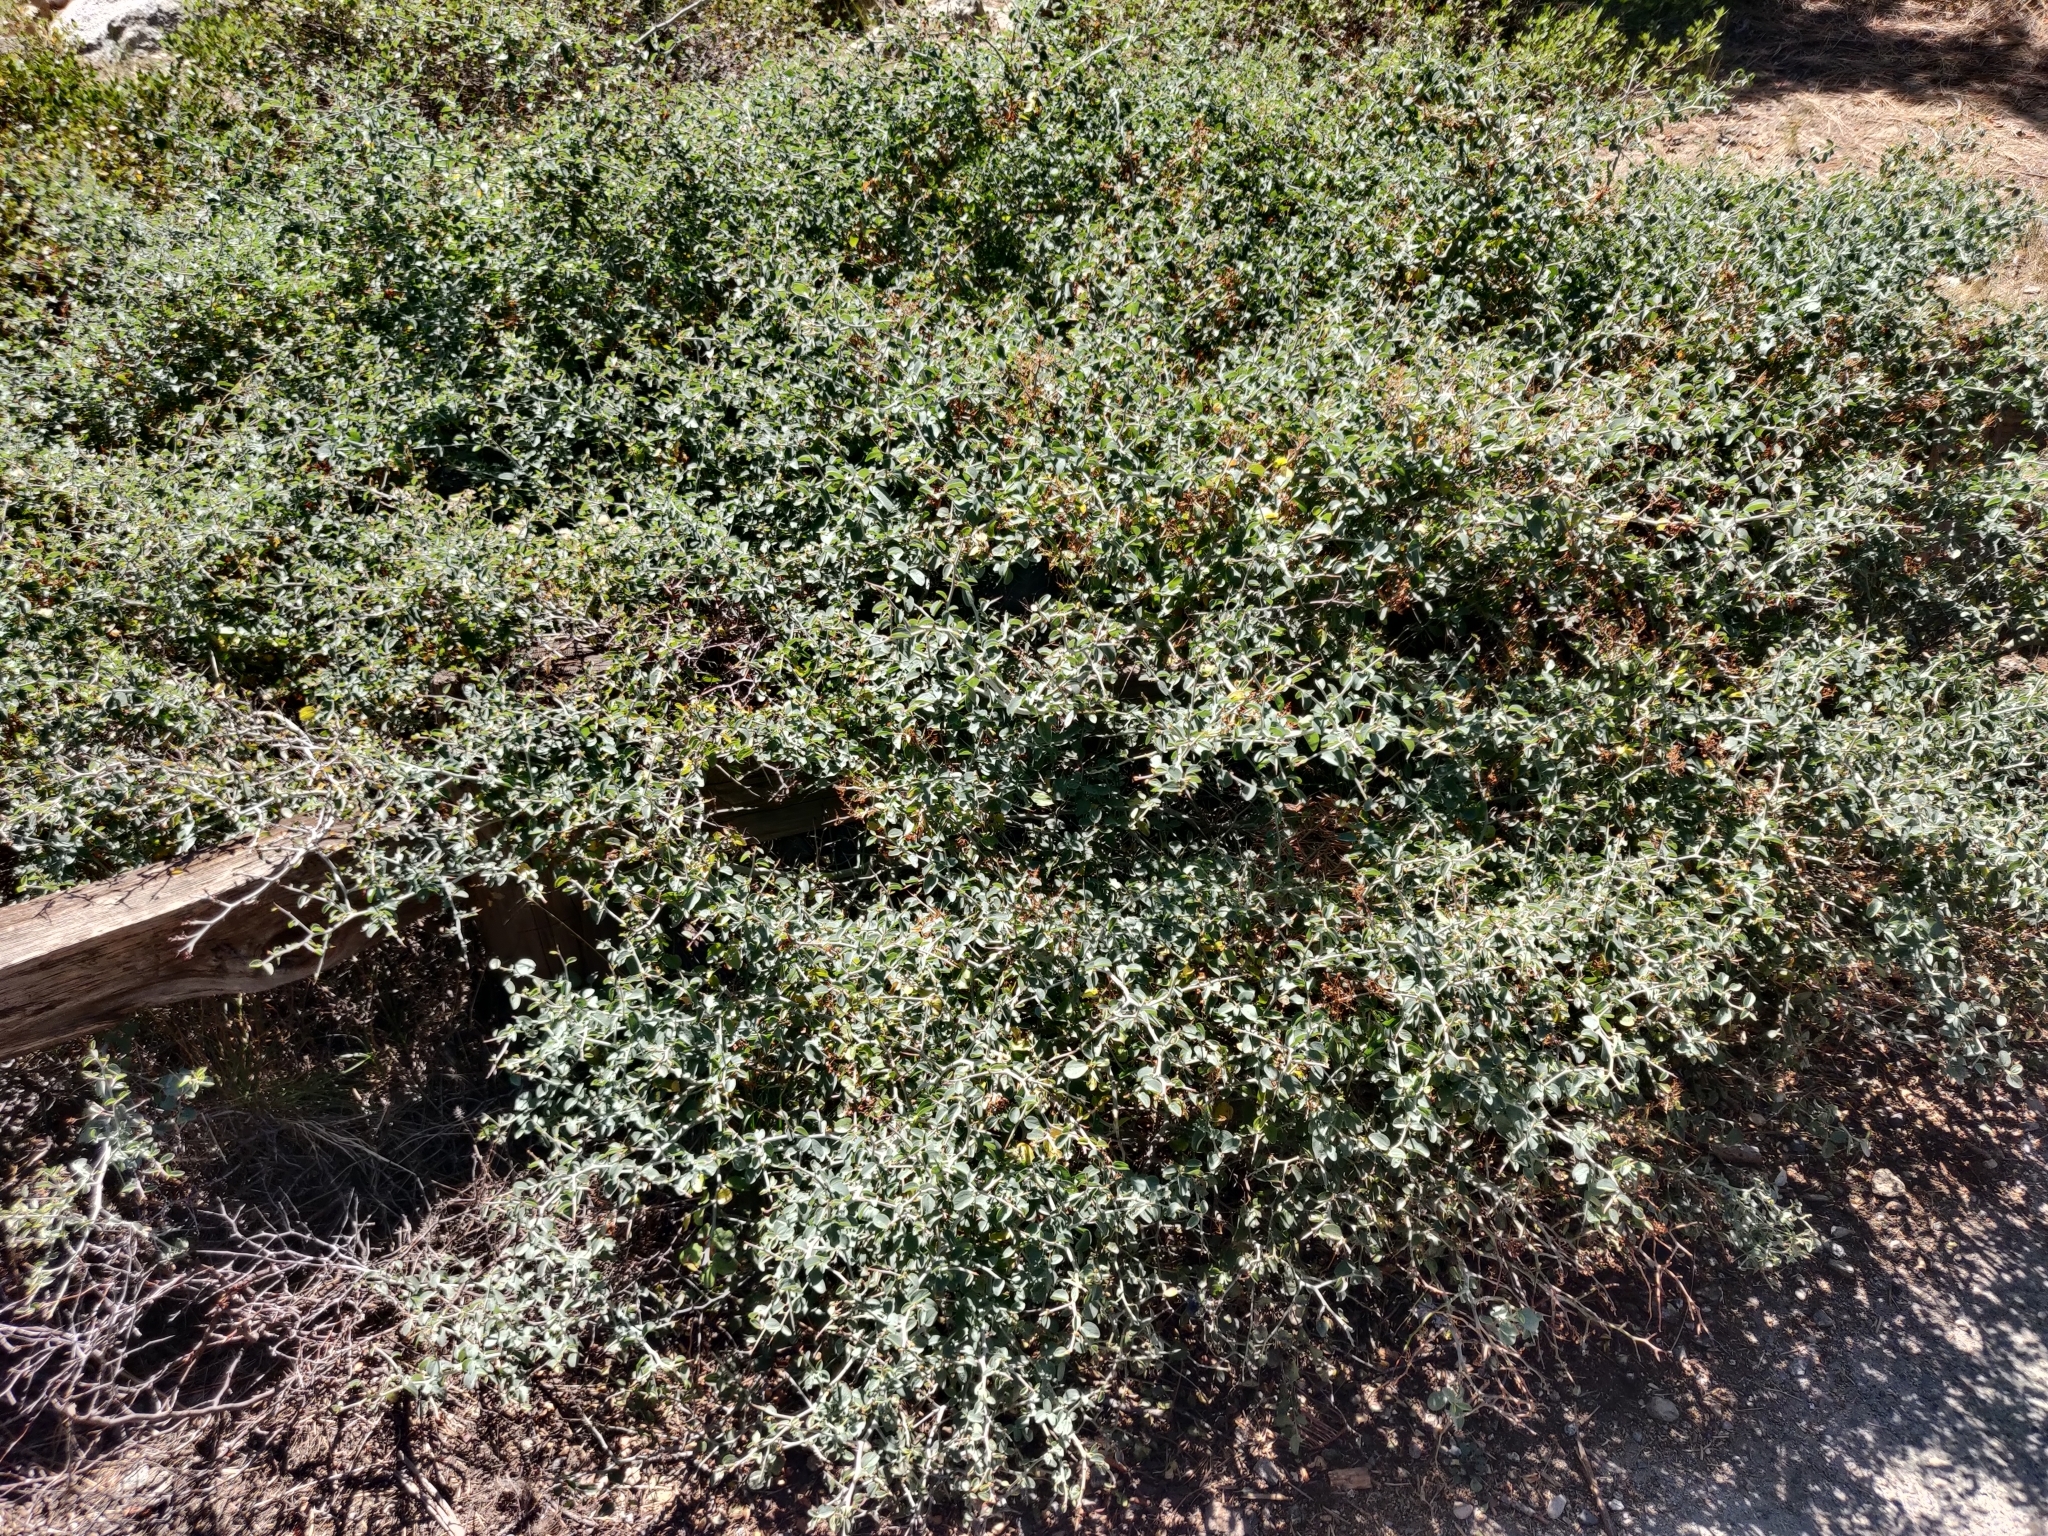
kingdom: Plantae
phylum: Tracheophyta
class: Magnoliopsida
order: Rosales
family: Rhamnaceae
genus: Ceanothus
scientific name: Ceanothus cordulatus
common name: Mountain whitethorn
